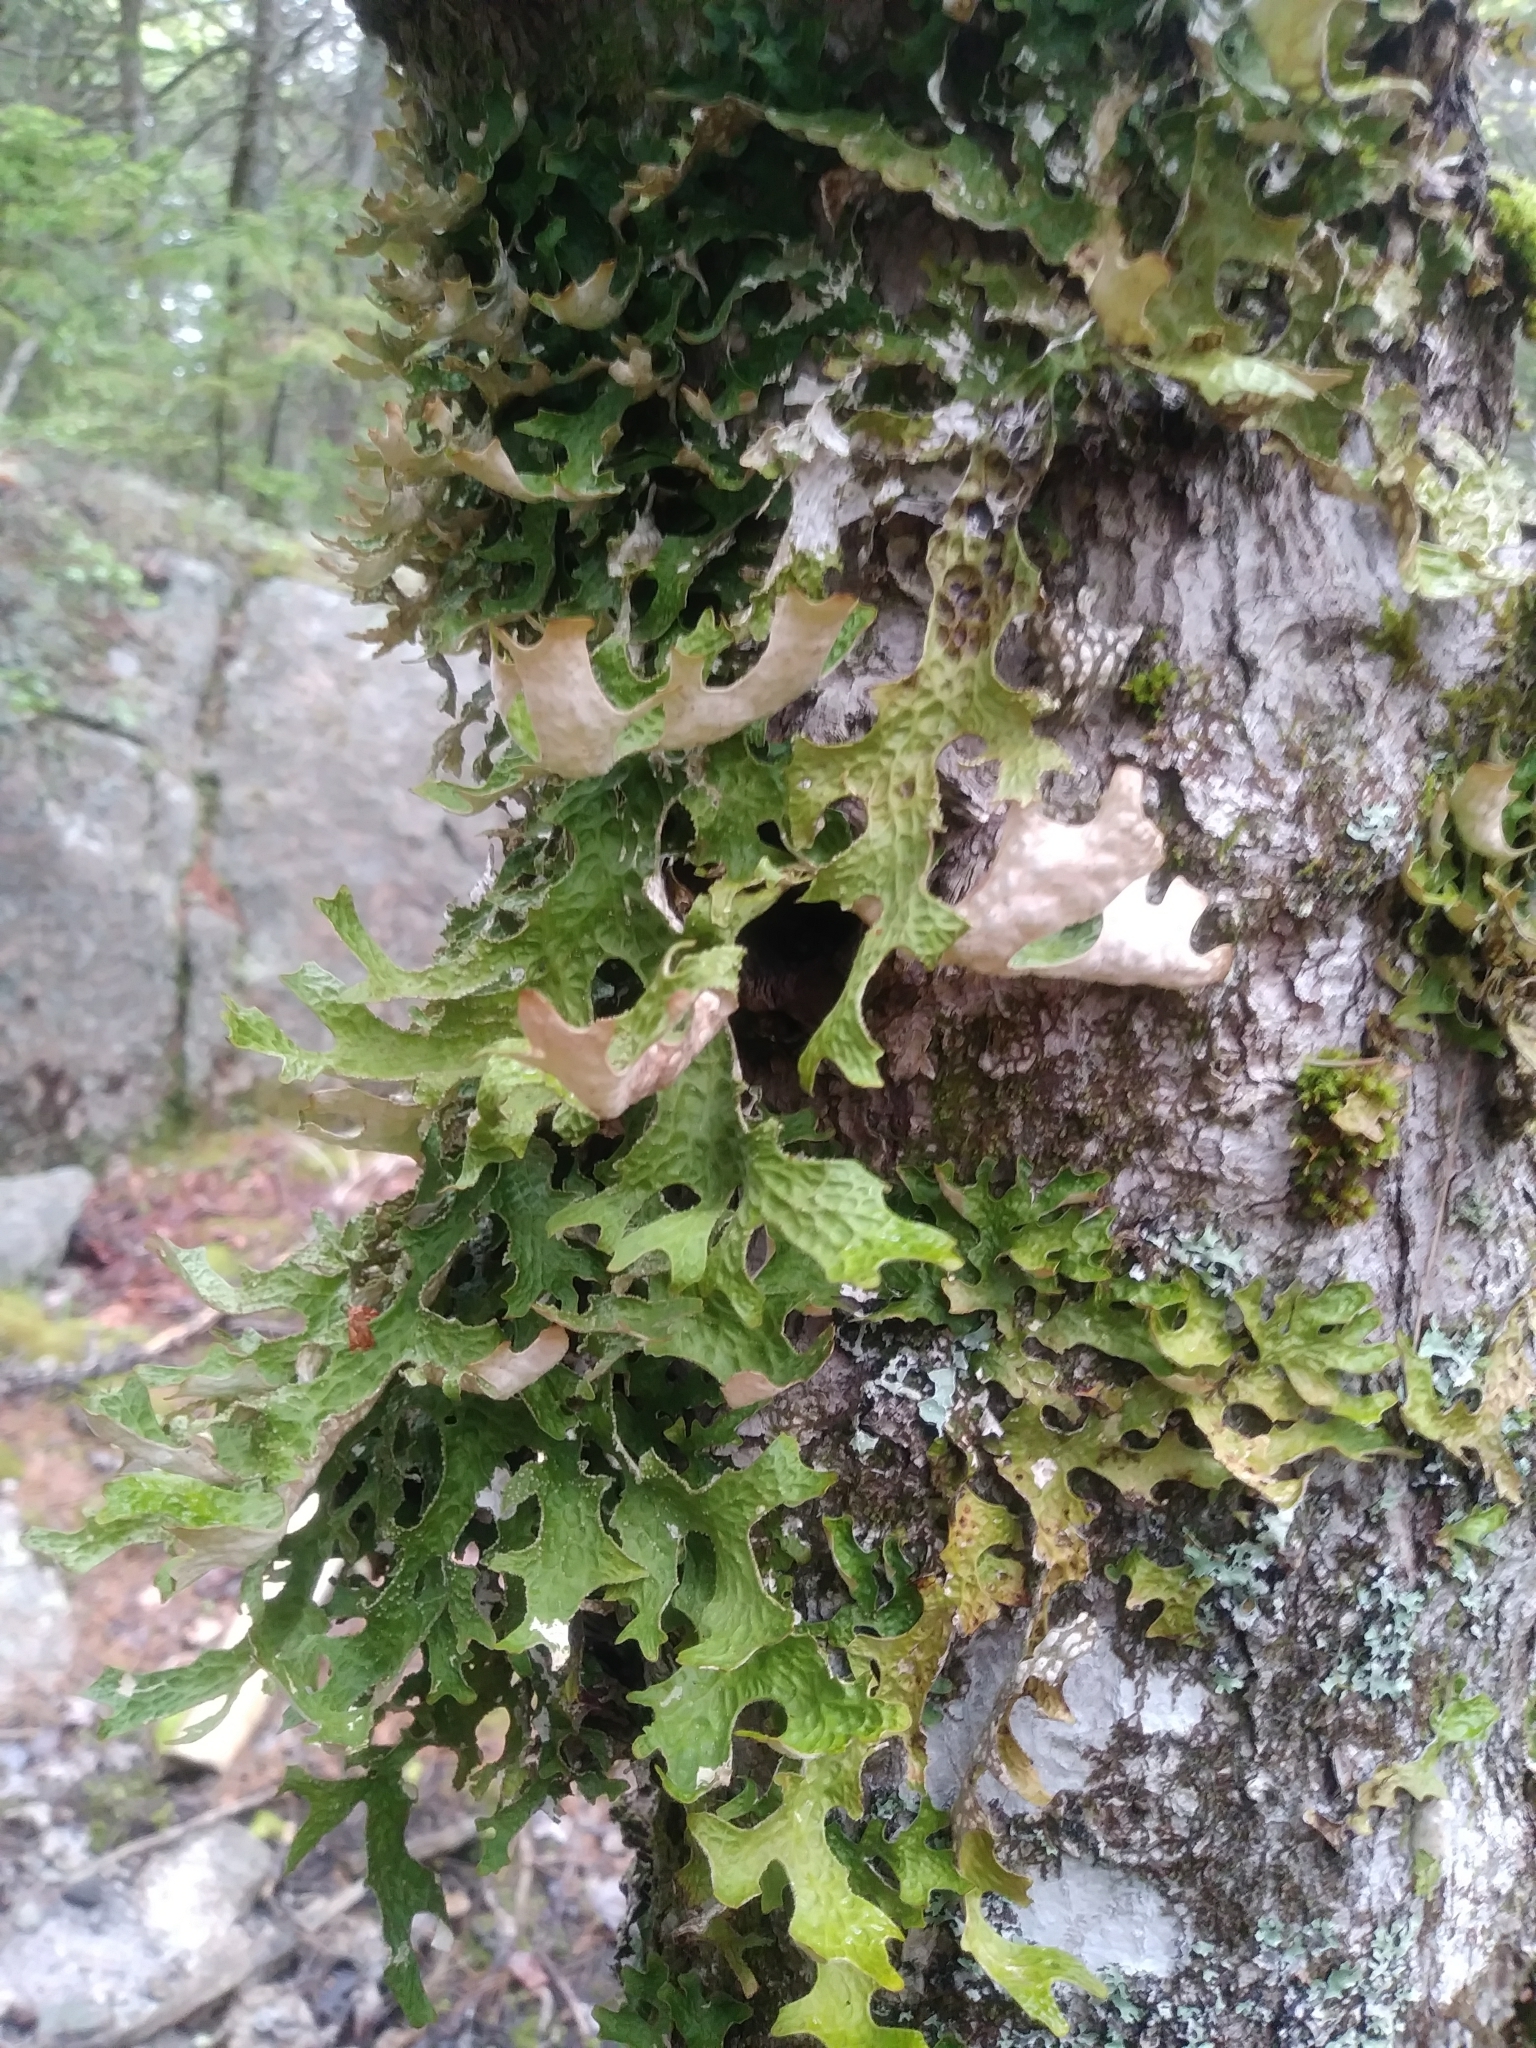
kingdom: Fungi
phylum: Ascomycota
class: Lecanoromycetes
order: Peltigerales
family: Lobariaceae
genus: Lobaria
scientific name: Lobaria pulmonaria
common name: Lungwort
